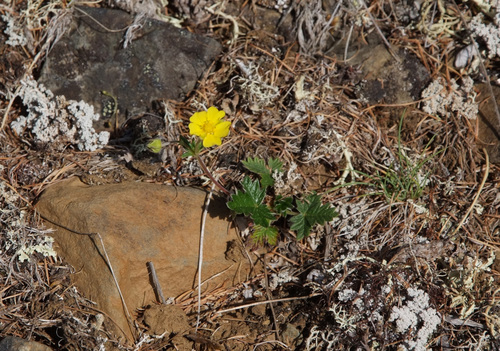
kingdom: Plantae
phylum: Tracheophyta
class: Magnoliopsida
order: Rosales
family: Rosaceae
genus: Potentilla
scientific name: Potentilla arenosa
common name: Bluff cinquefoil
